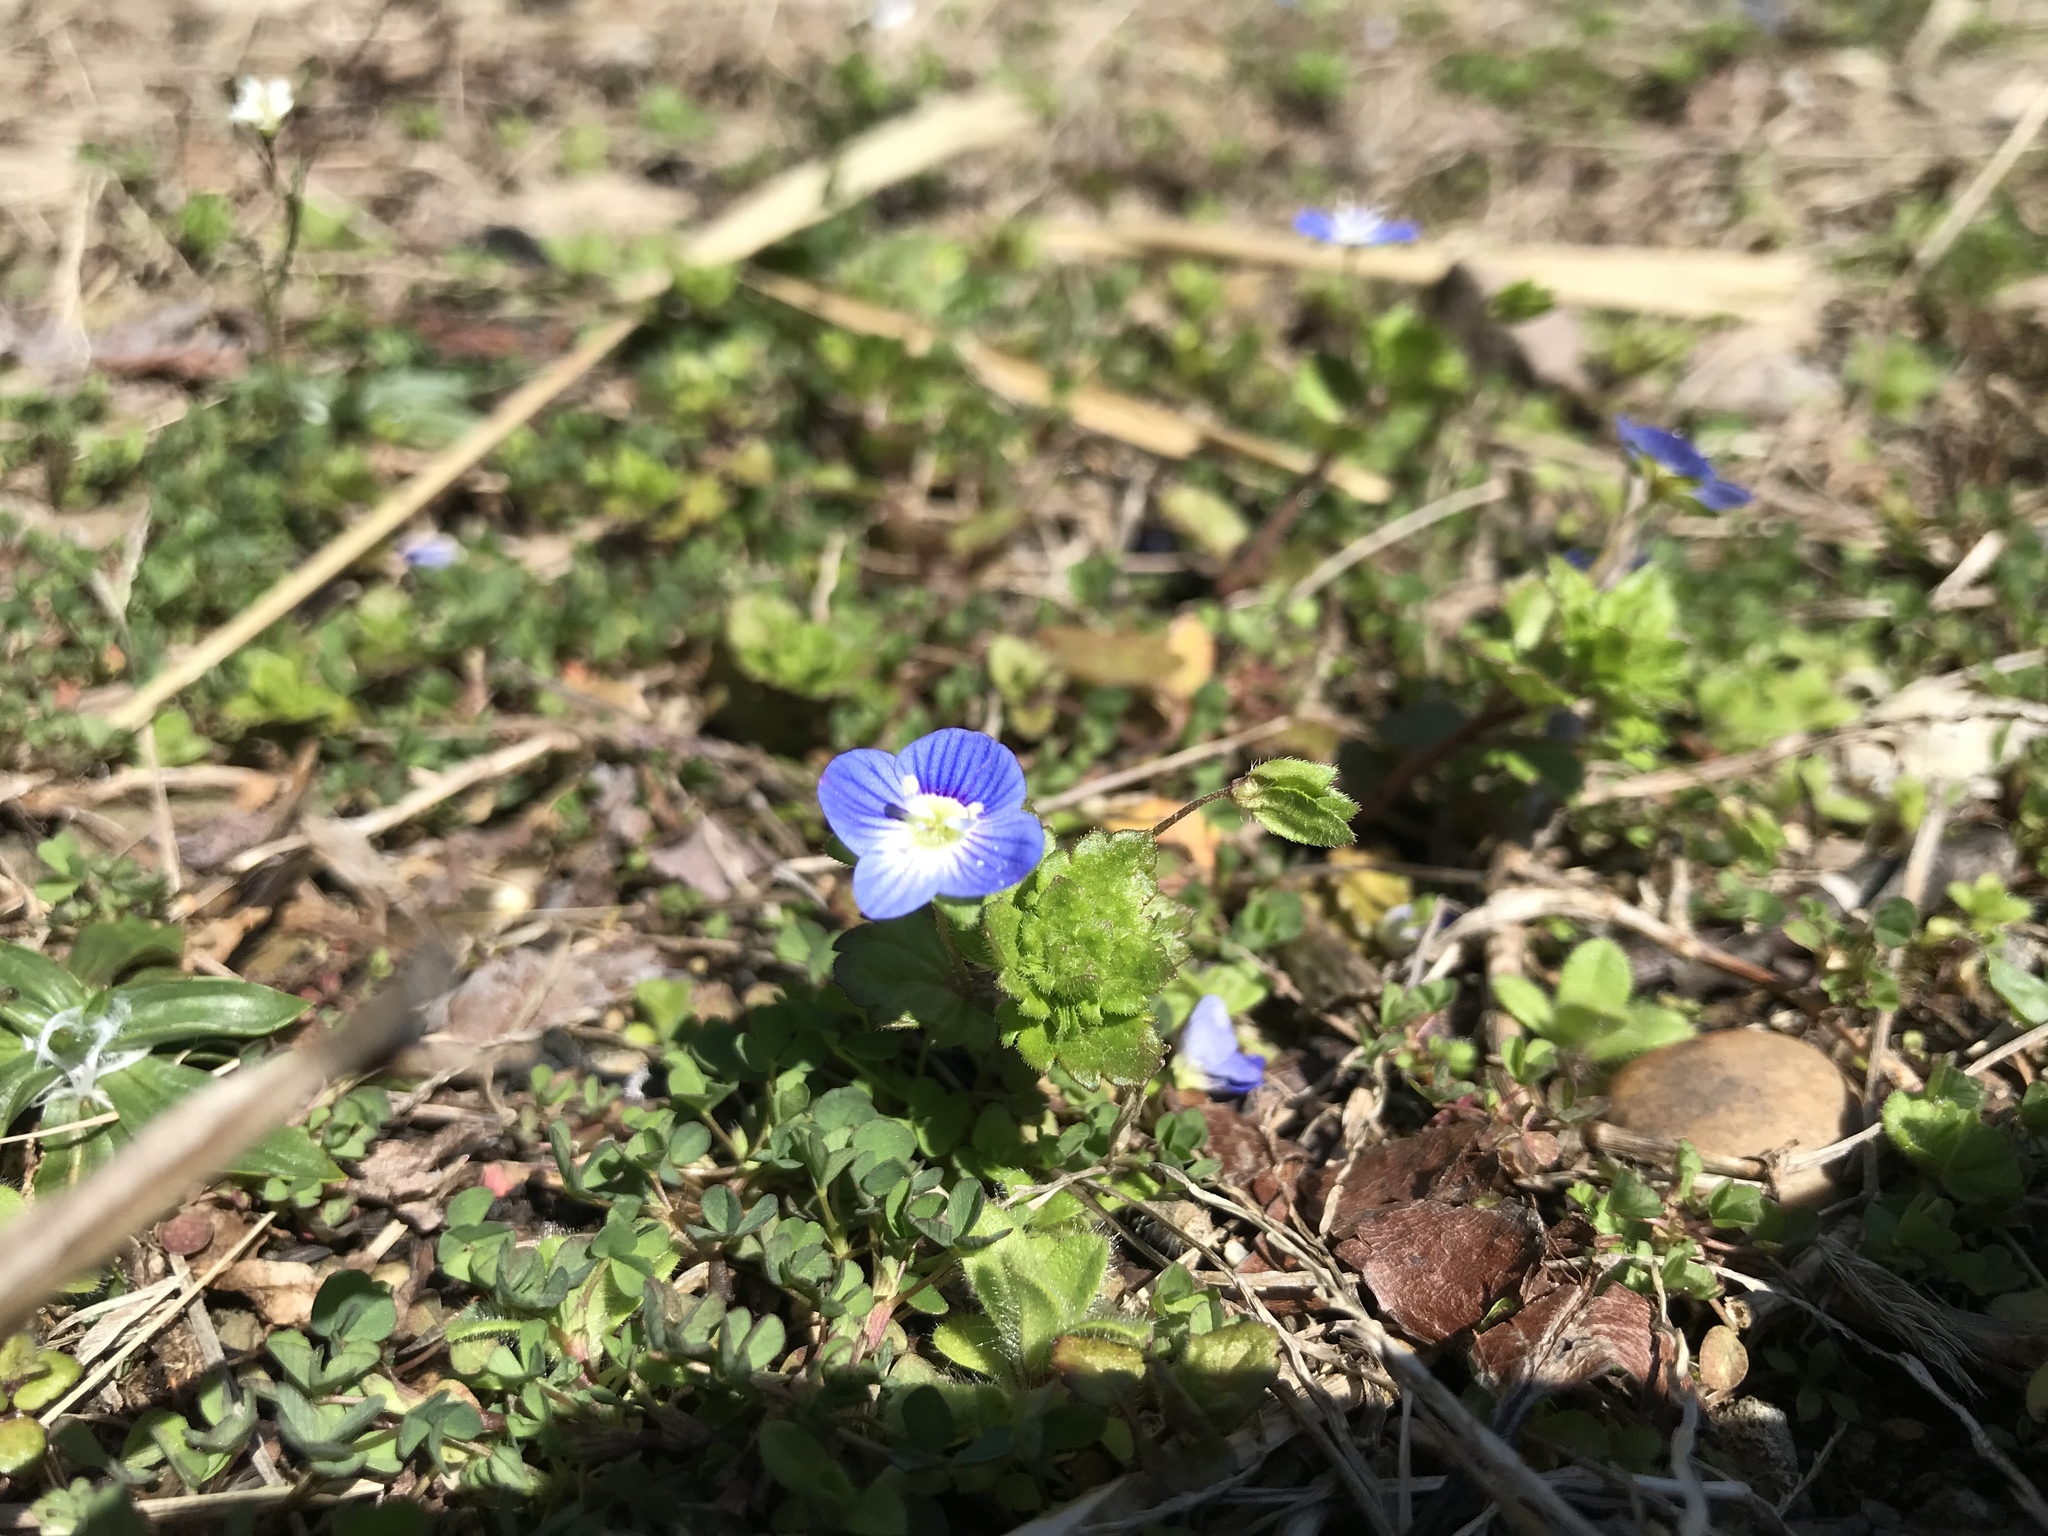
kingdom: Plantae
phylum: Tracheophyta
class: Magnoliopsida
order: Lamiales
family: Plantaginaceae
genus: Veronica
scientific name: Veronica persica
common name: Common field-speedwell
